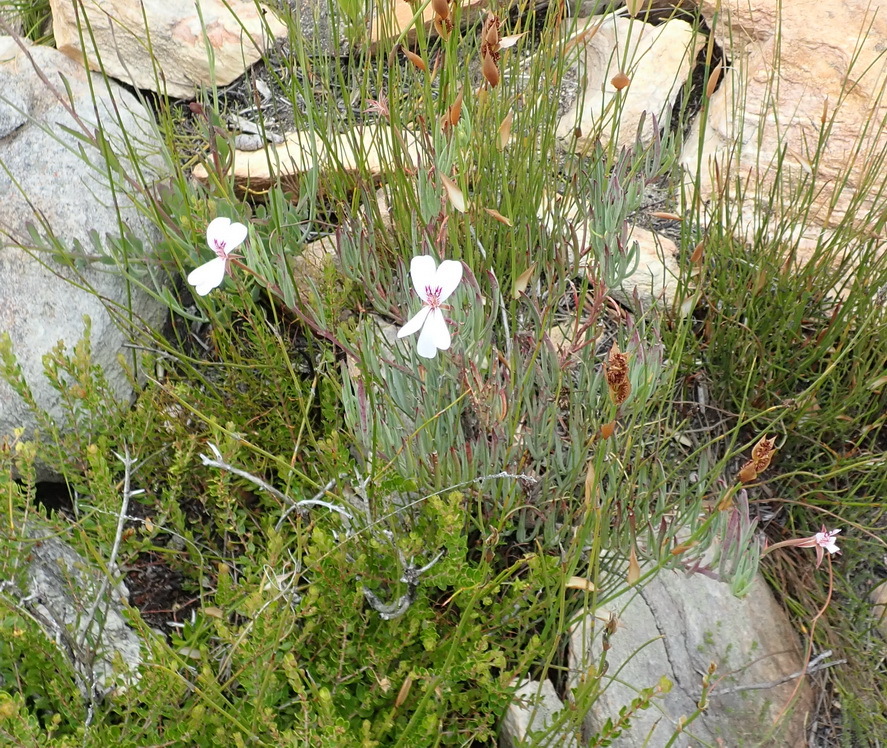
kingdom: Plantae
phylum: Tracheophyta
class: Magnoliopsida
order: Geraniales
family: Geraniaceae
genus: Pelargonium
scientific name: Pelargonium laevigatum
